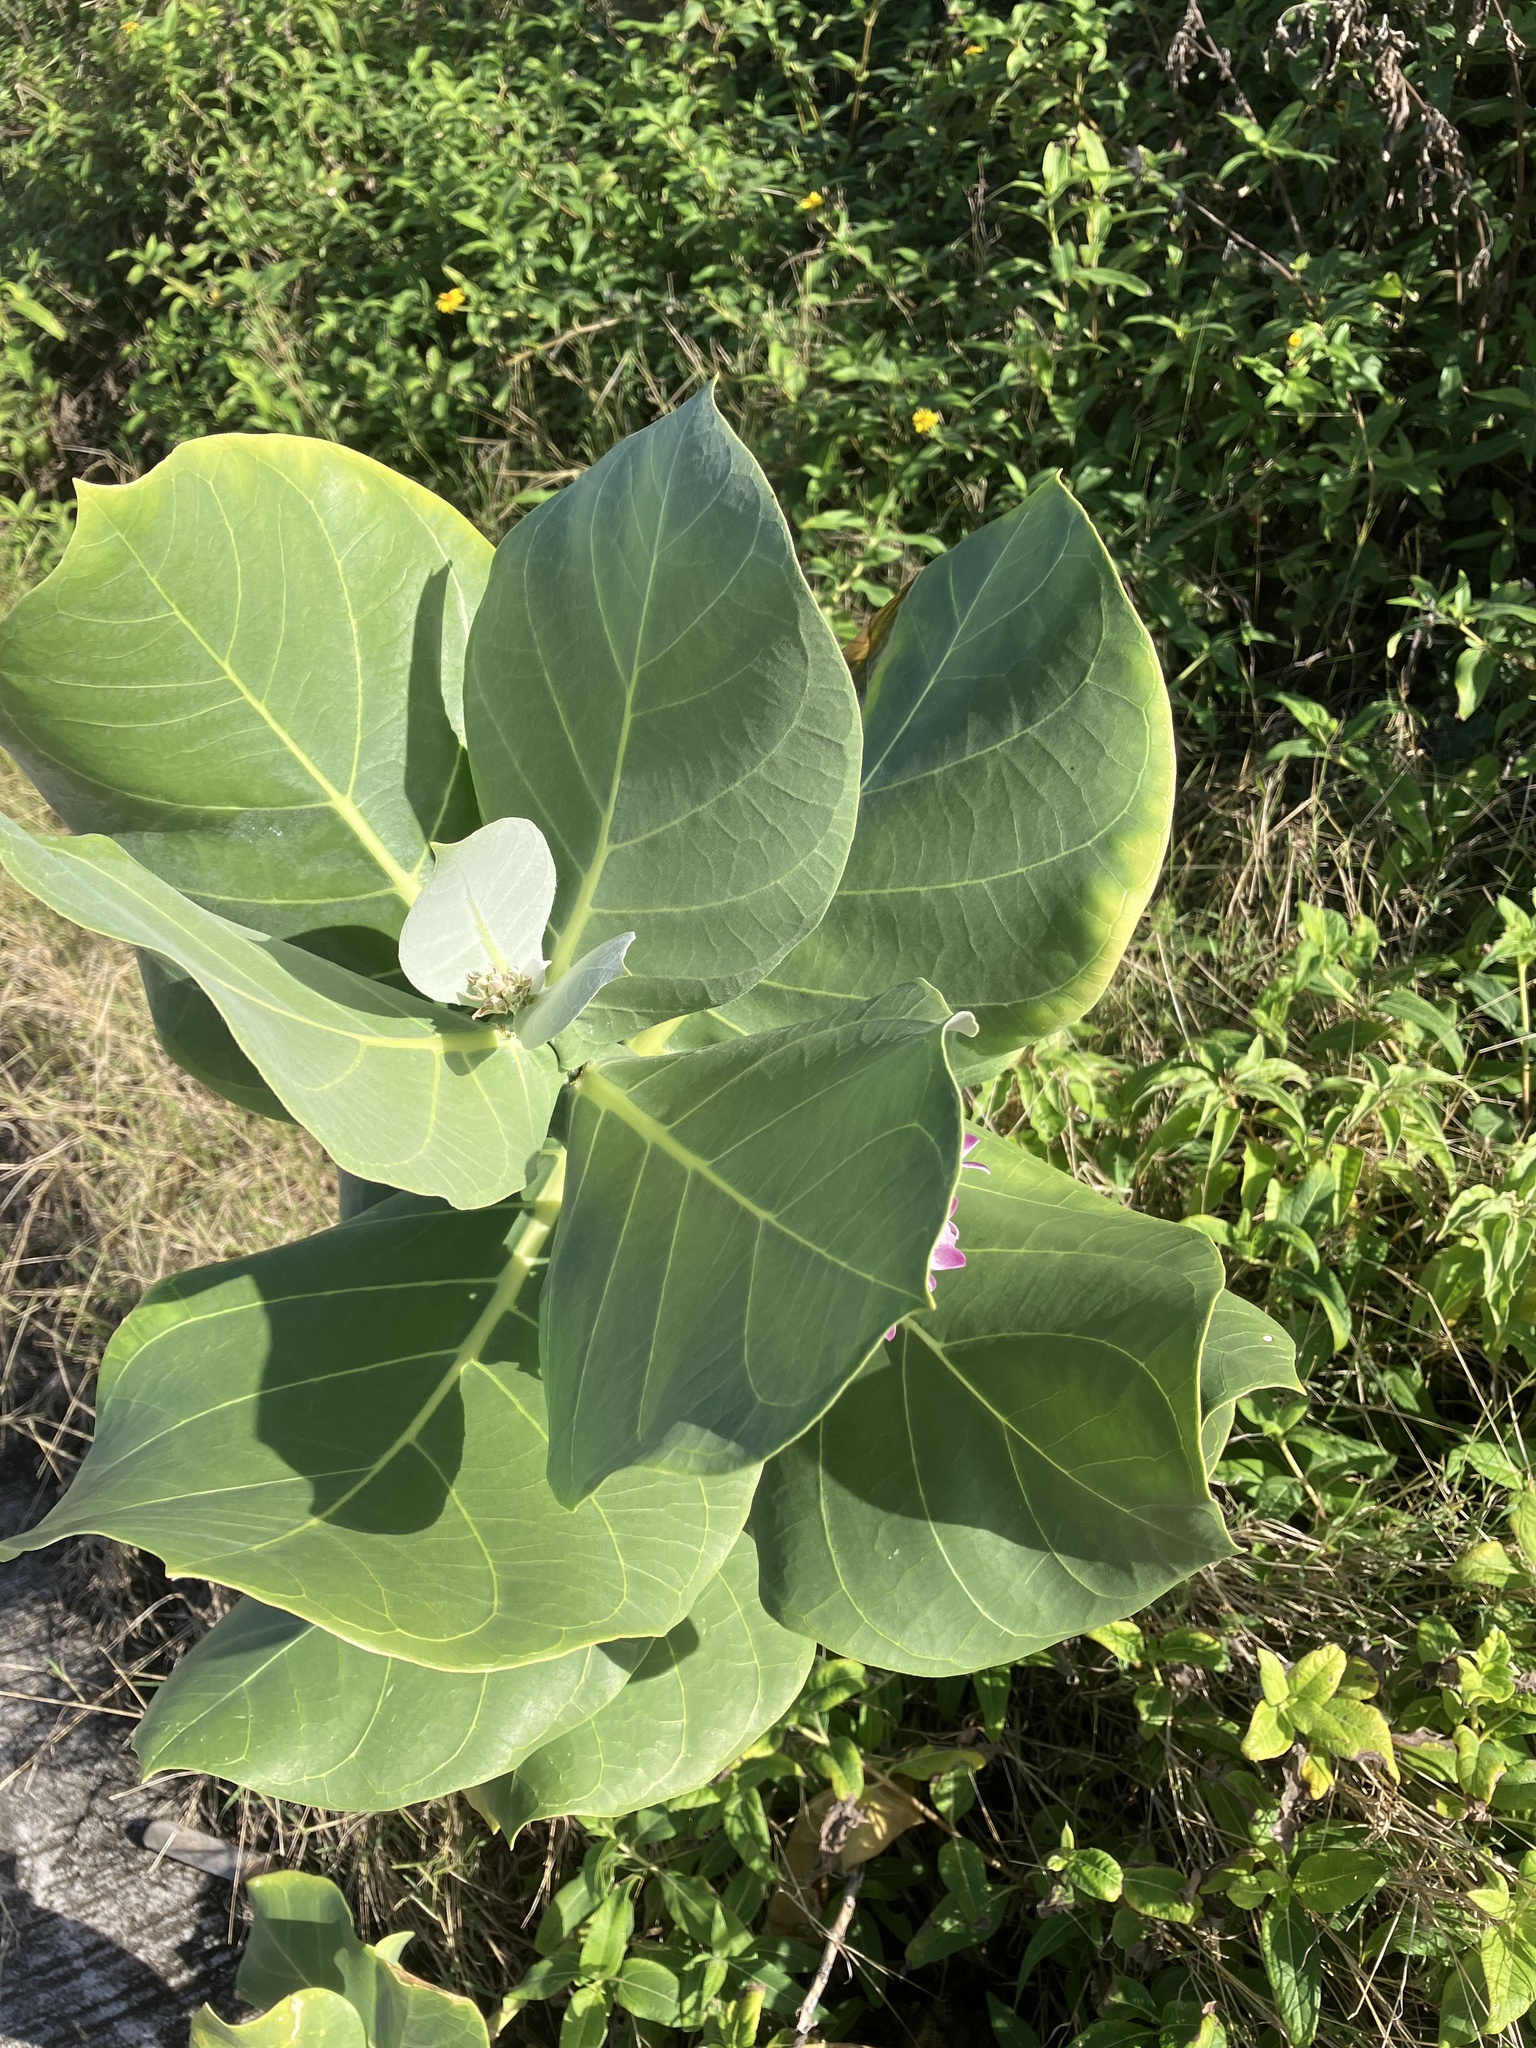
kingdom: Plantae
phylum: Tracheophyta
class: Magnoliopsida
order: Gentianales
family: Apocynaceae
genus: Calotropis
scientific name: Calotropis procera
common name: Roostertree
